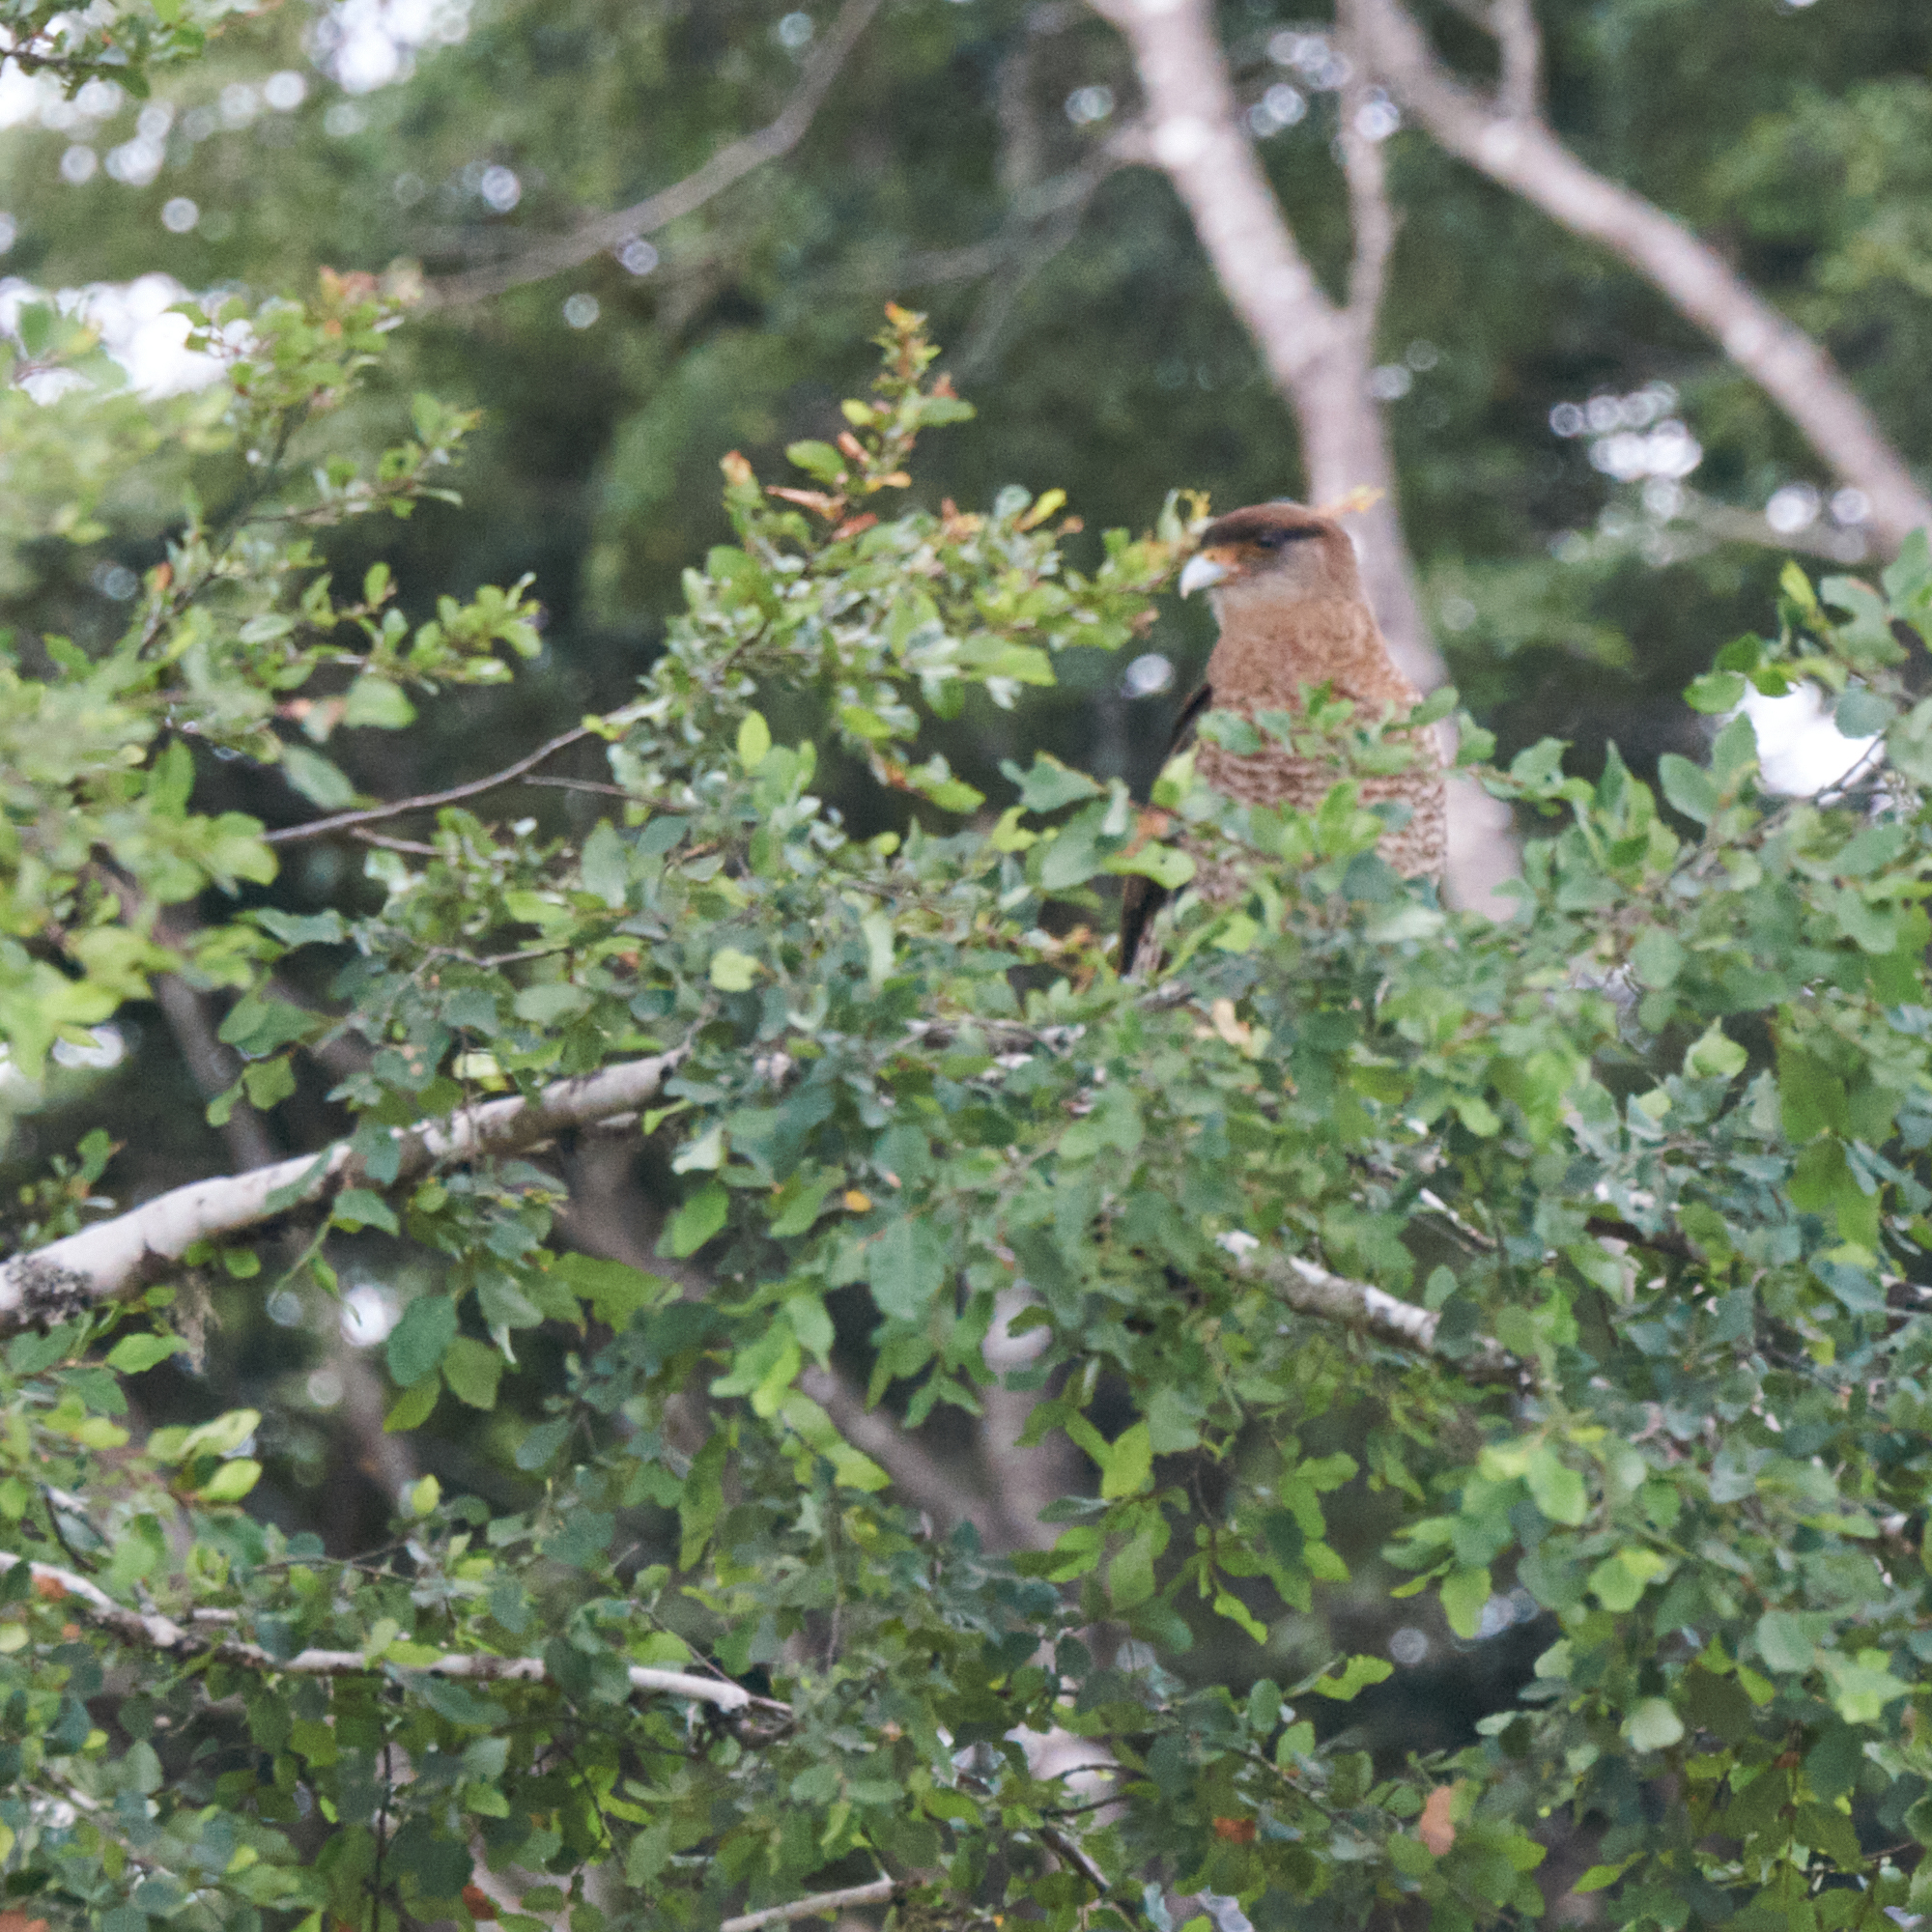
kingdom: Animalia
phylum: Chordata
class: Aves
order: Falconiformes
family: Falconidae
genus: Daptrius
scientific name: Daptrius
